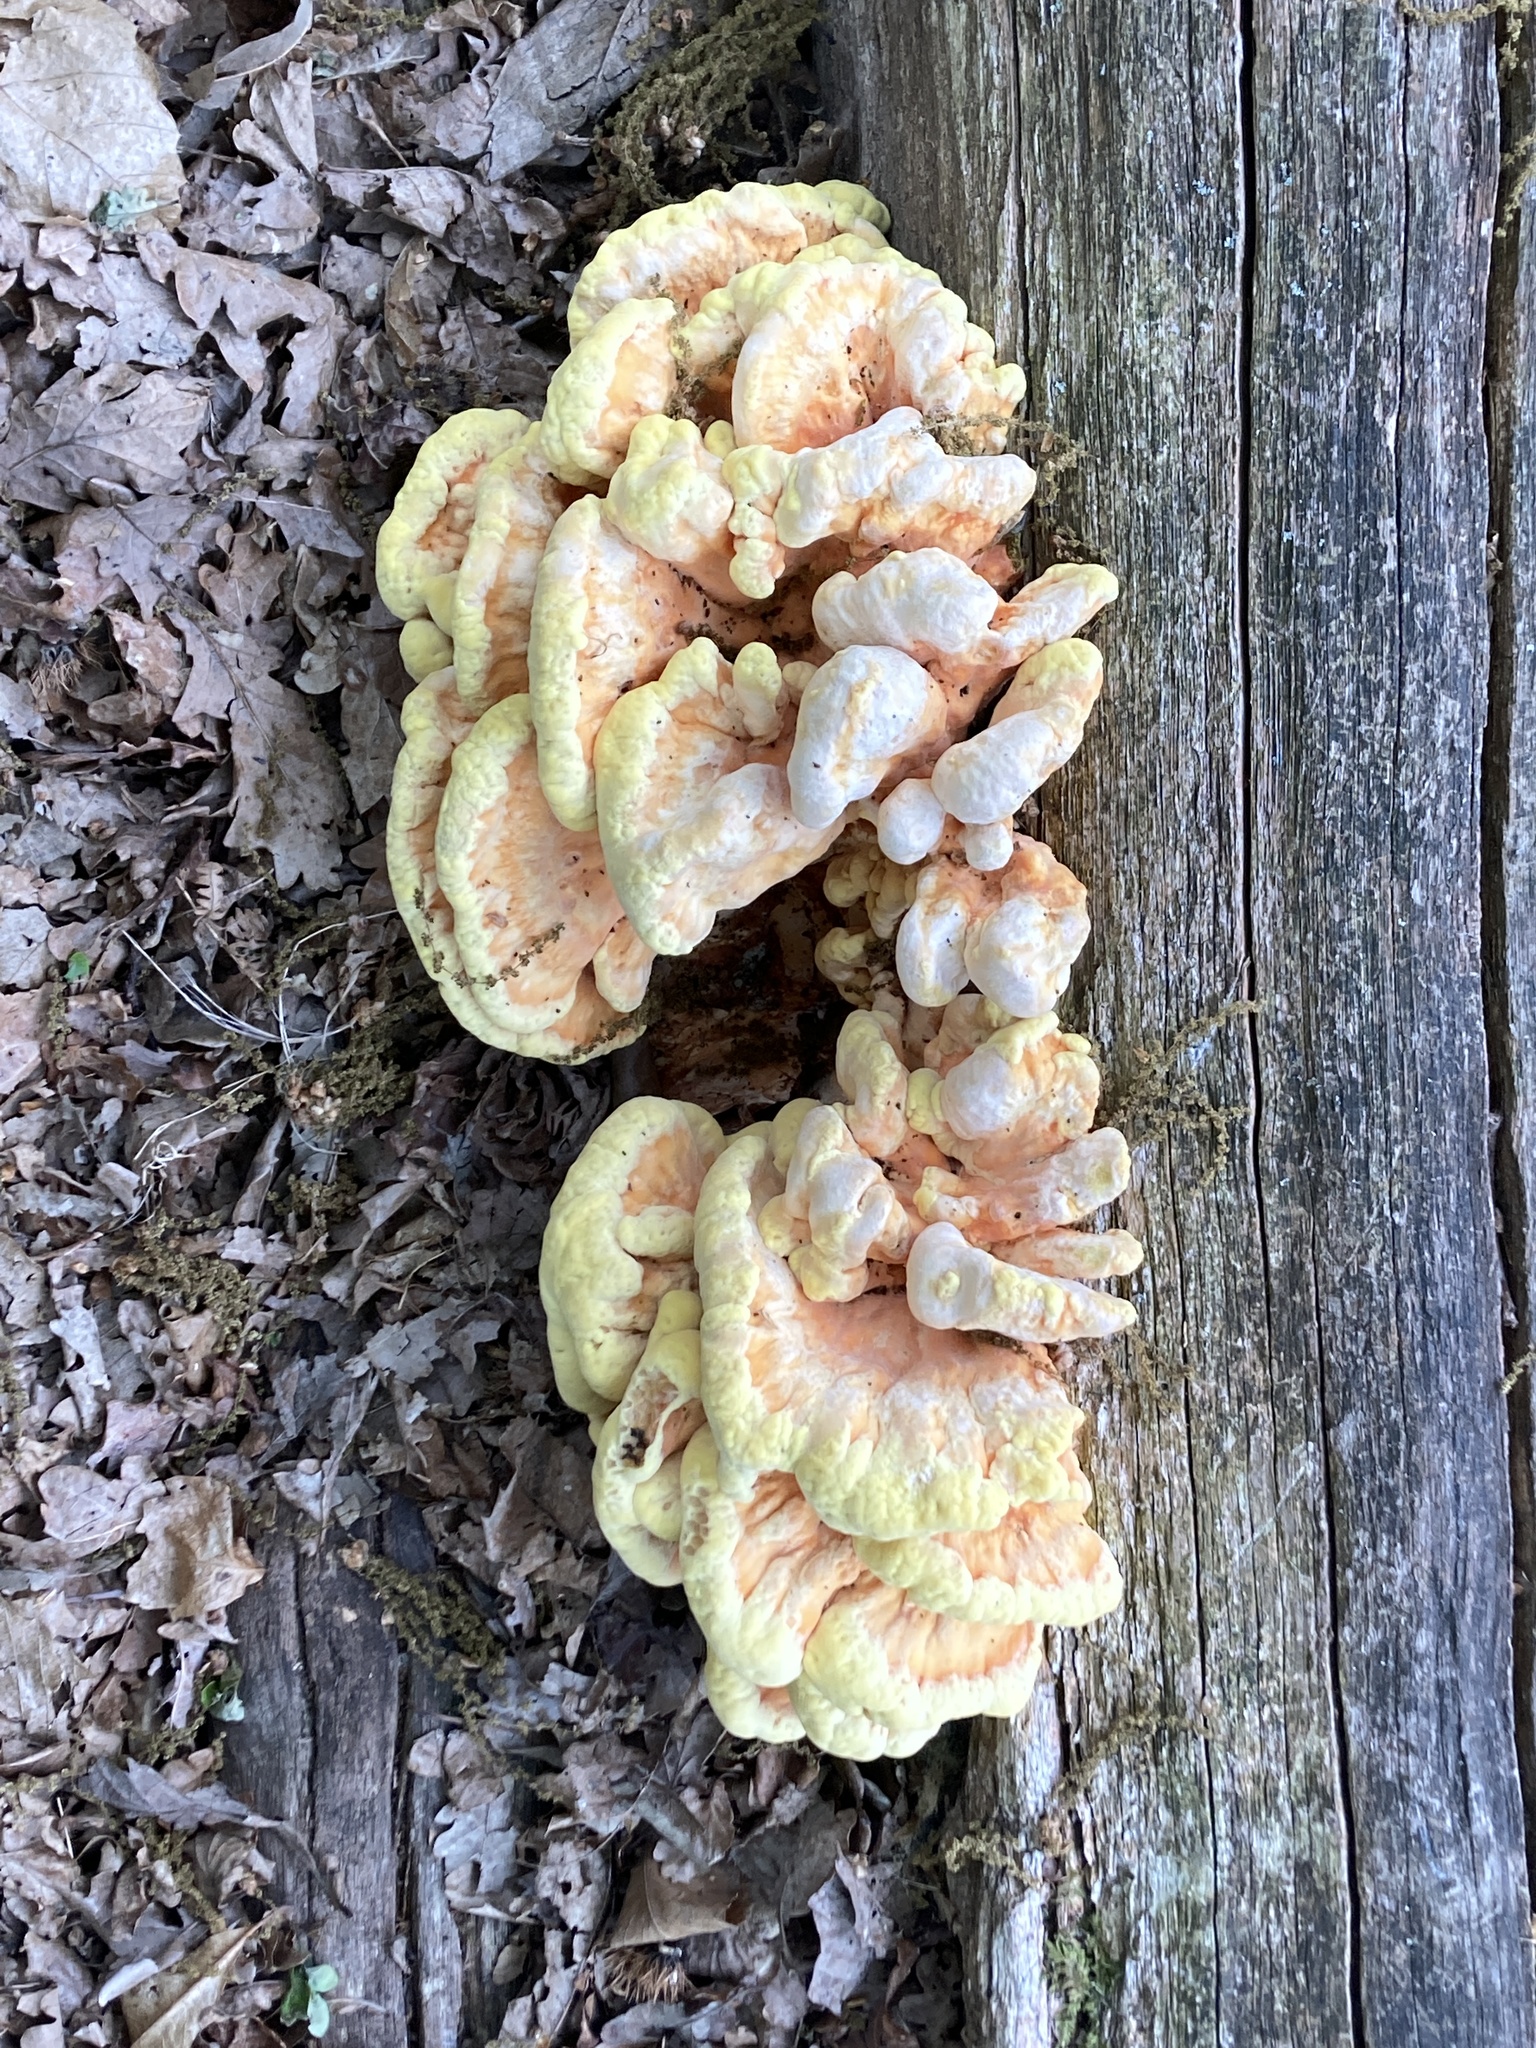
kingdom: Fungi
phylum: Basidiomycota
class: Agaricomycetes
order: Polyporales
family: Laetiporaceae
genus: Laetiporus
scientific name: Laetiporus sulphureus
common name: Chicken of the woods
